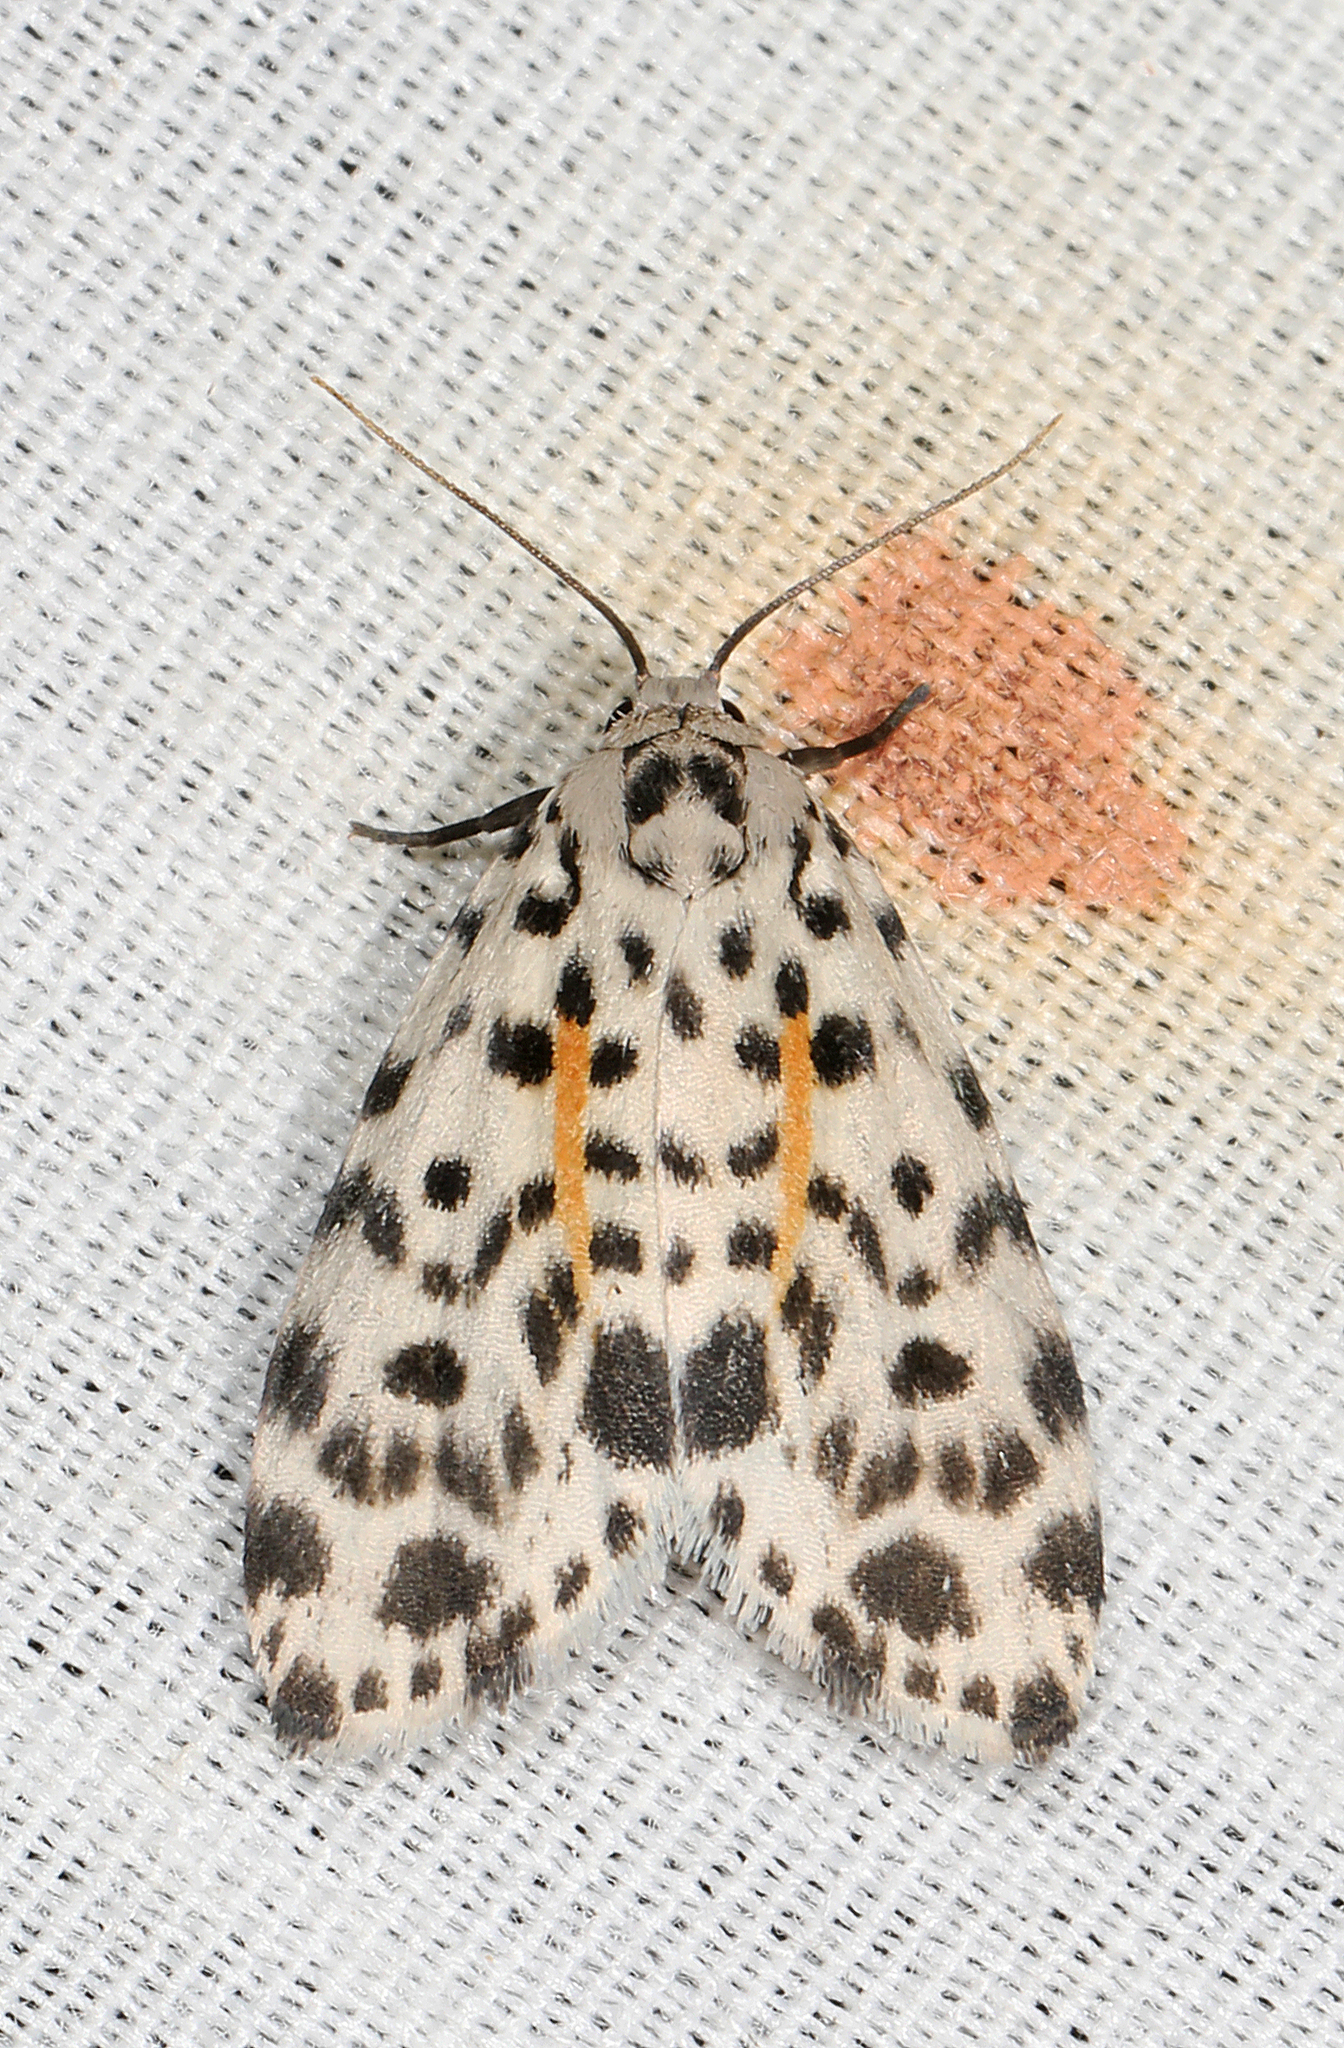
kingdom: Animalia
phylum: Arthropoda
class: Insecta
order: Lepidoptera
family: Erebidae
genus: Clemensia
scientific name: Clemensia leopardina
